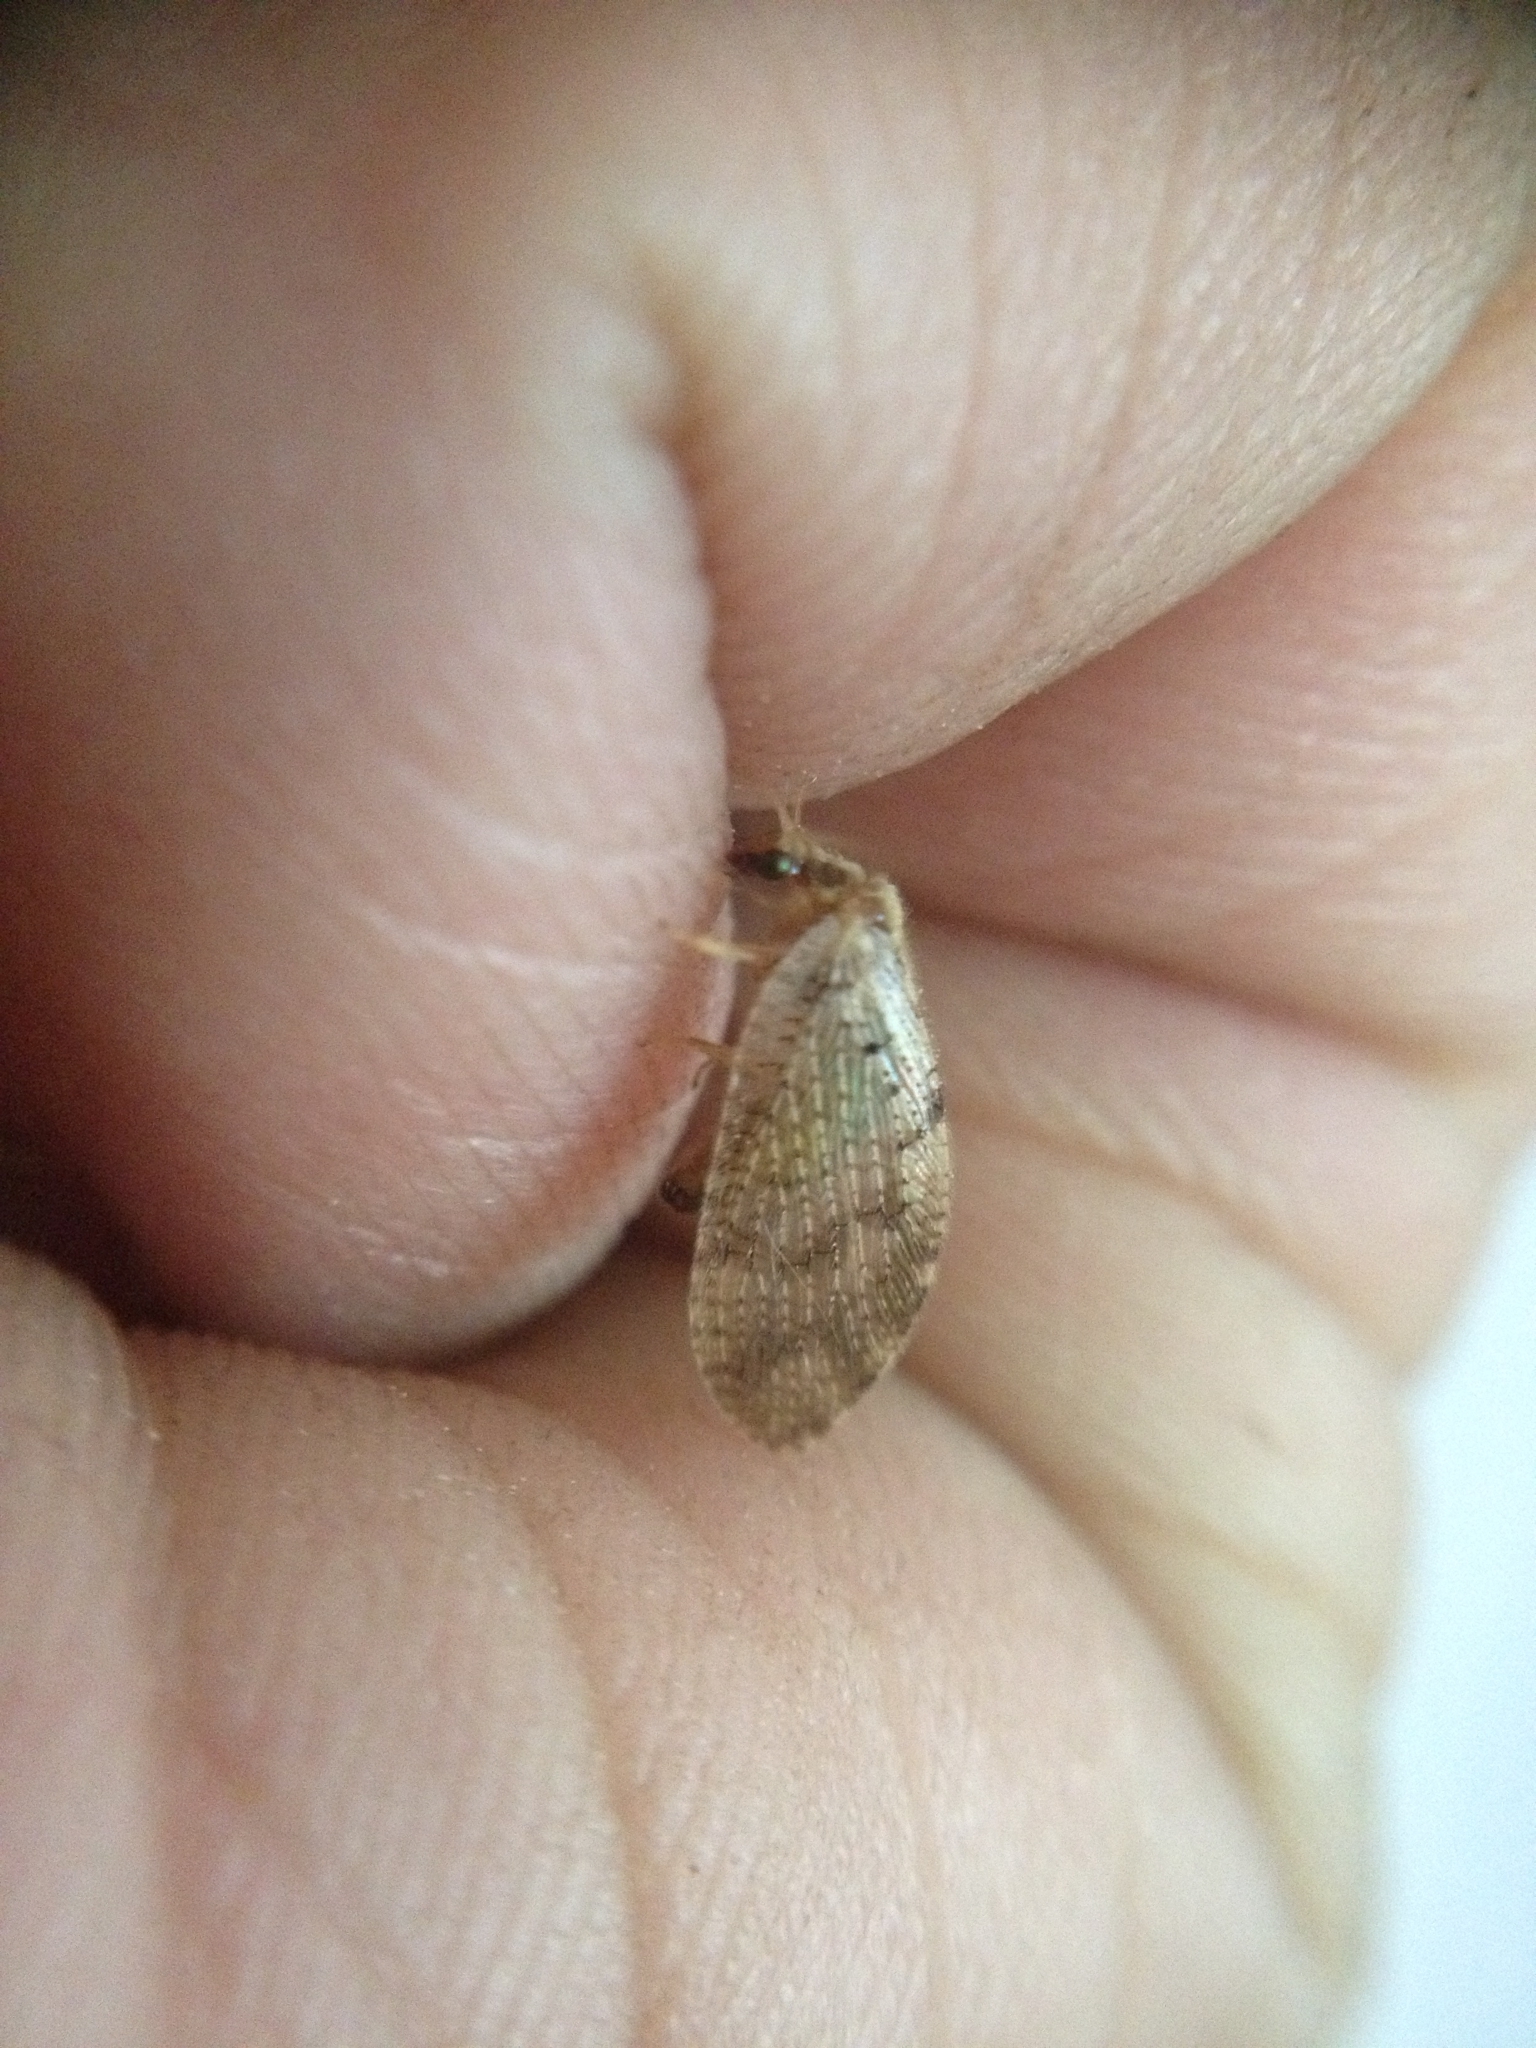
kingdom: Animalia
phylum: Arthropoda
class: Insecta
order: Neuroptera
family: Hemerobiidae
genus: Hemerobius
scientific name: Hemerobius humulinus
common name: Humulin brown lacewing
